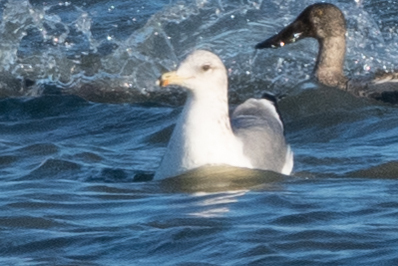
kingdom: Animalia
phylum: Chordata
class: Aves
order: Charadriiformes
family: Laridae
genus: Larus
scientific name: Larus californicus
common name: California gull
